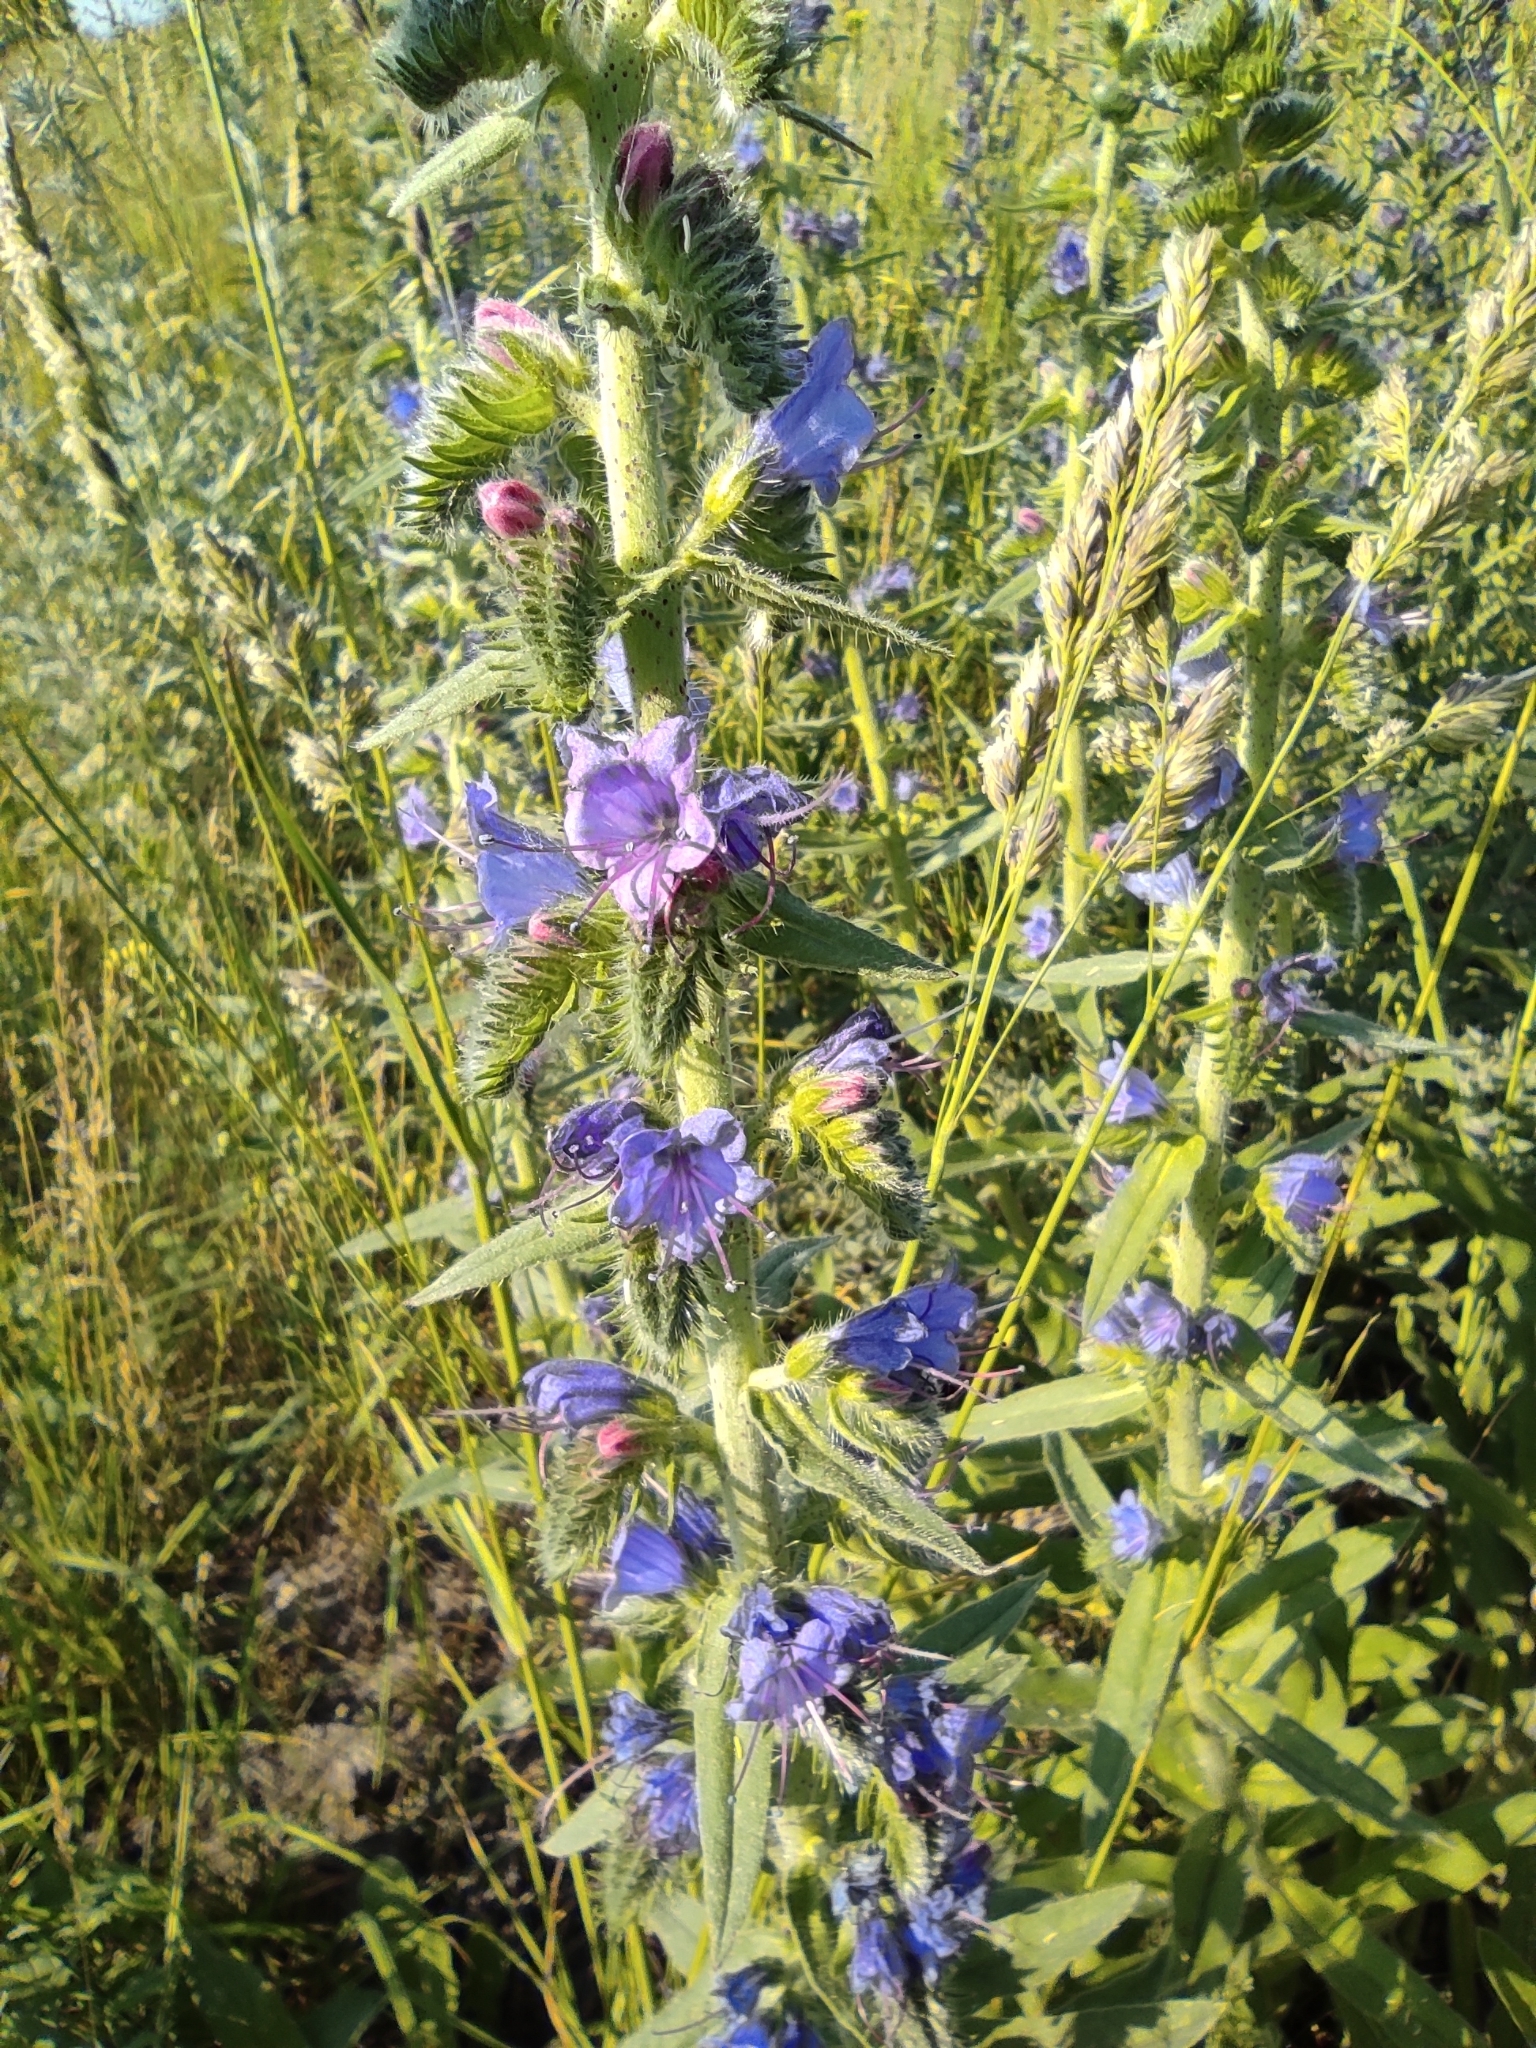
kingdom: Plantae
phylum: Tracheophyta
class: Magnoliopsida
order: Boraginales
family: Boraginaceae
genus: Echium
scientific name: Echium vulgare
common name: Common viper's bugloss
